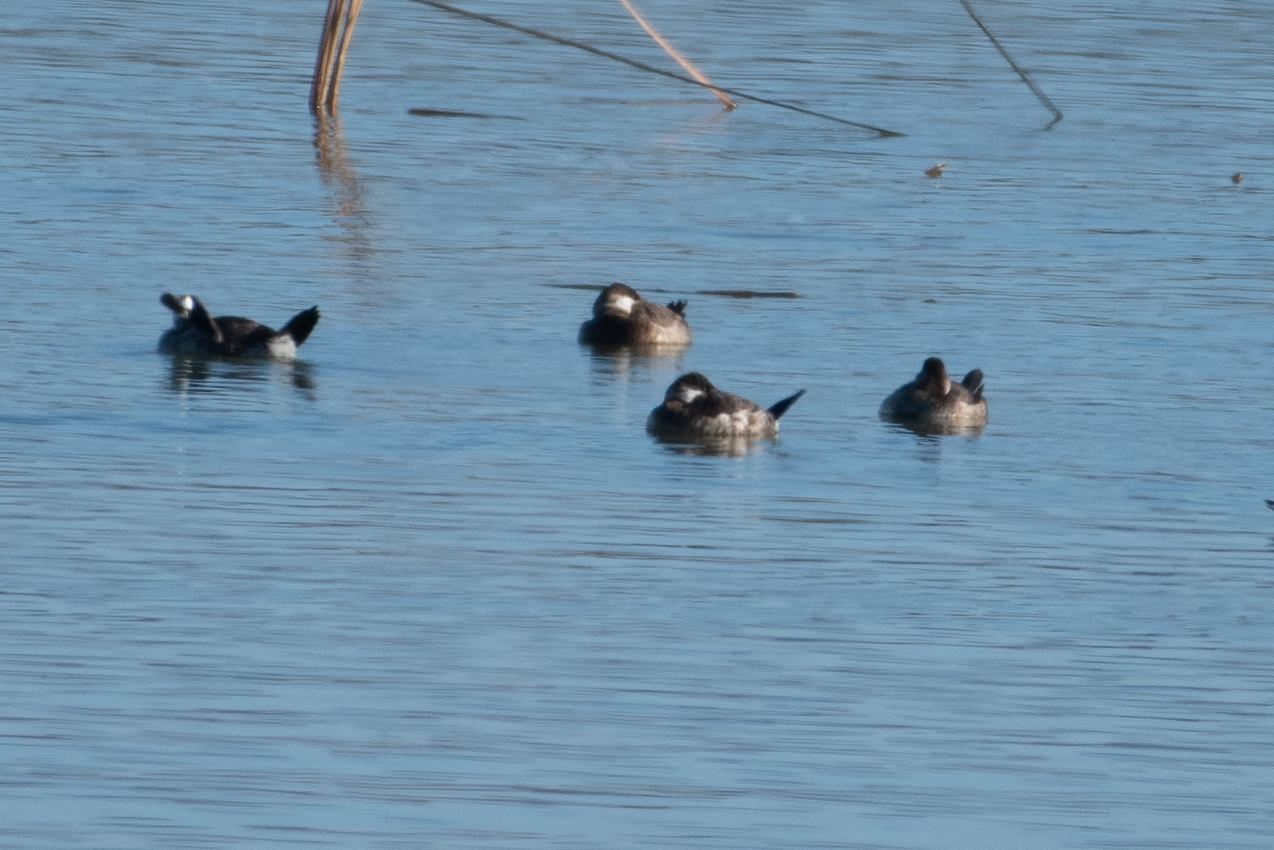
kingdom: Animalia
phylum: Chordata
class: Aves
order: Anseriformes
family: Anatidae
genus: Oxyura
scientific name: Oxyura jamaicensis
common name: Ruddy duck
